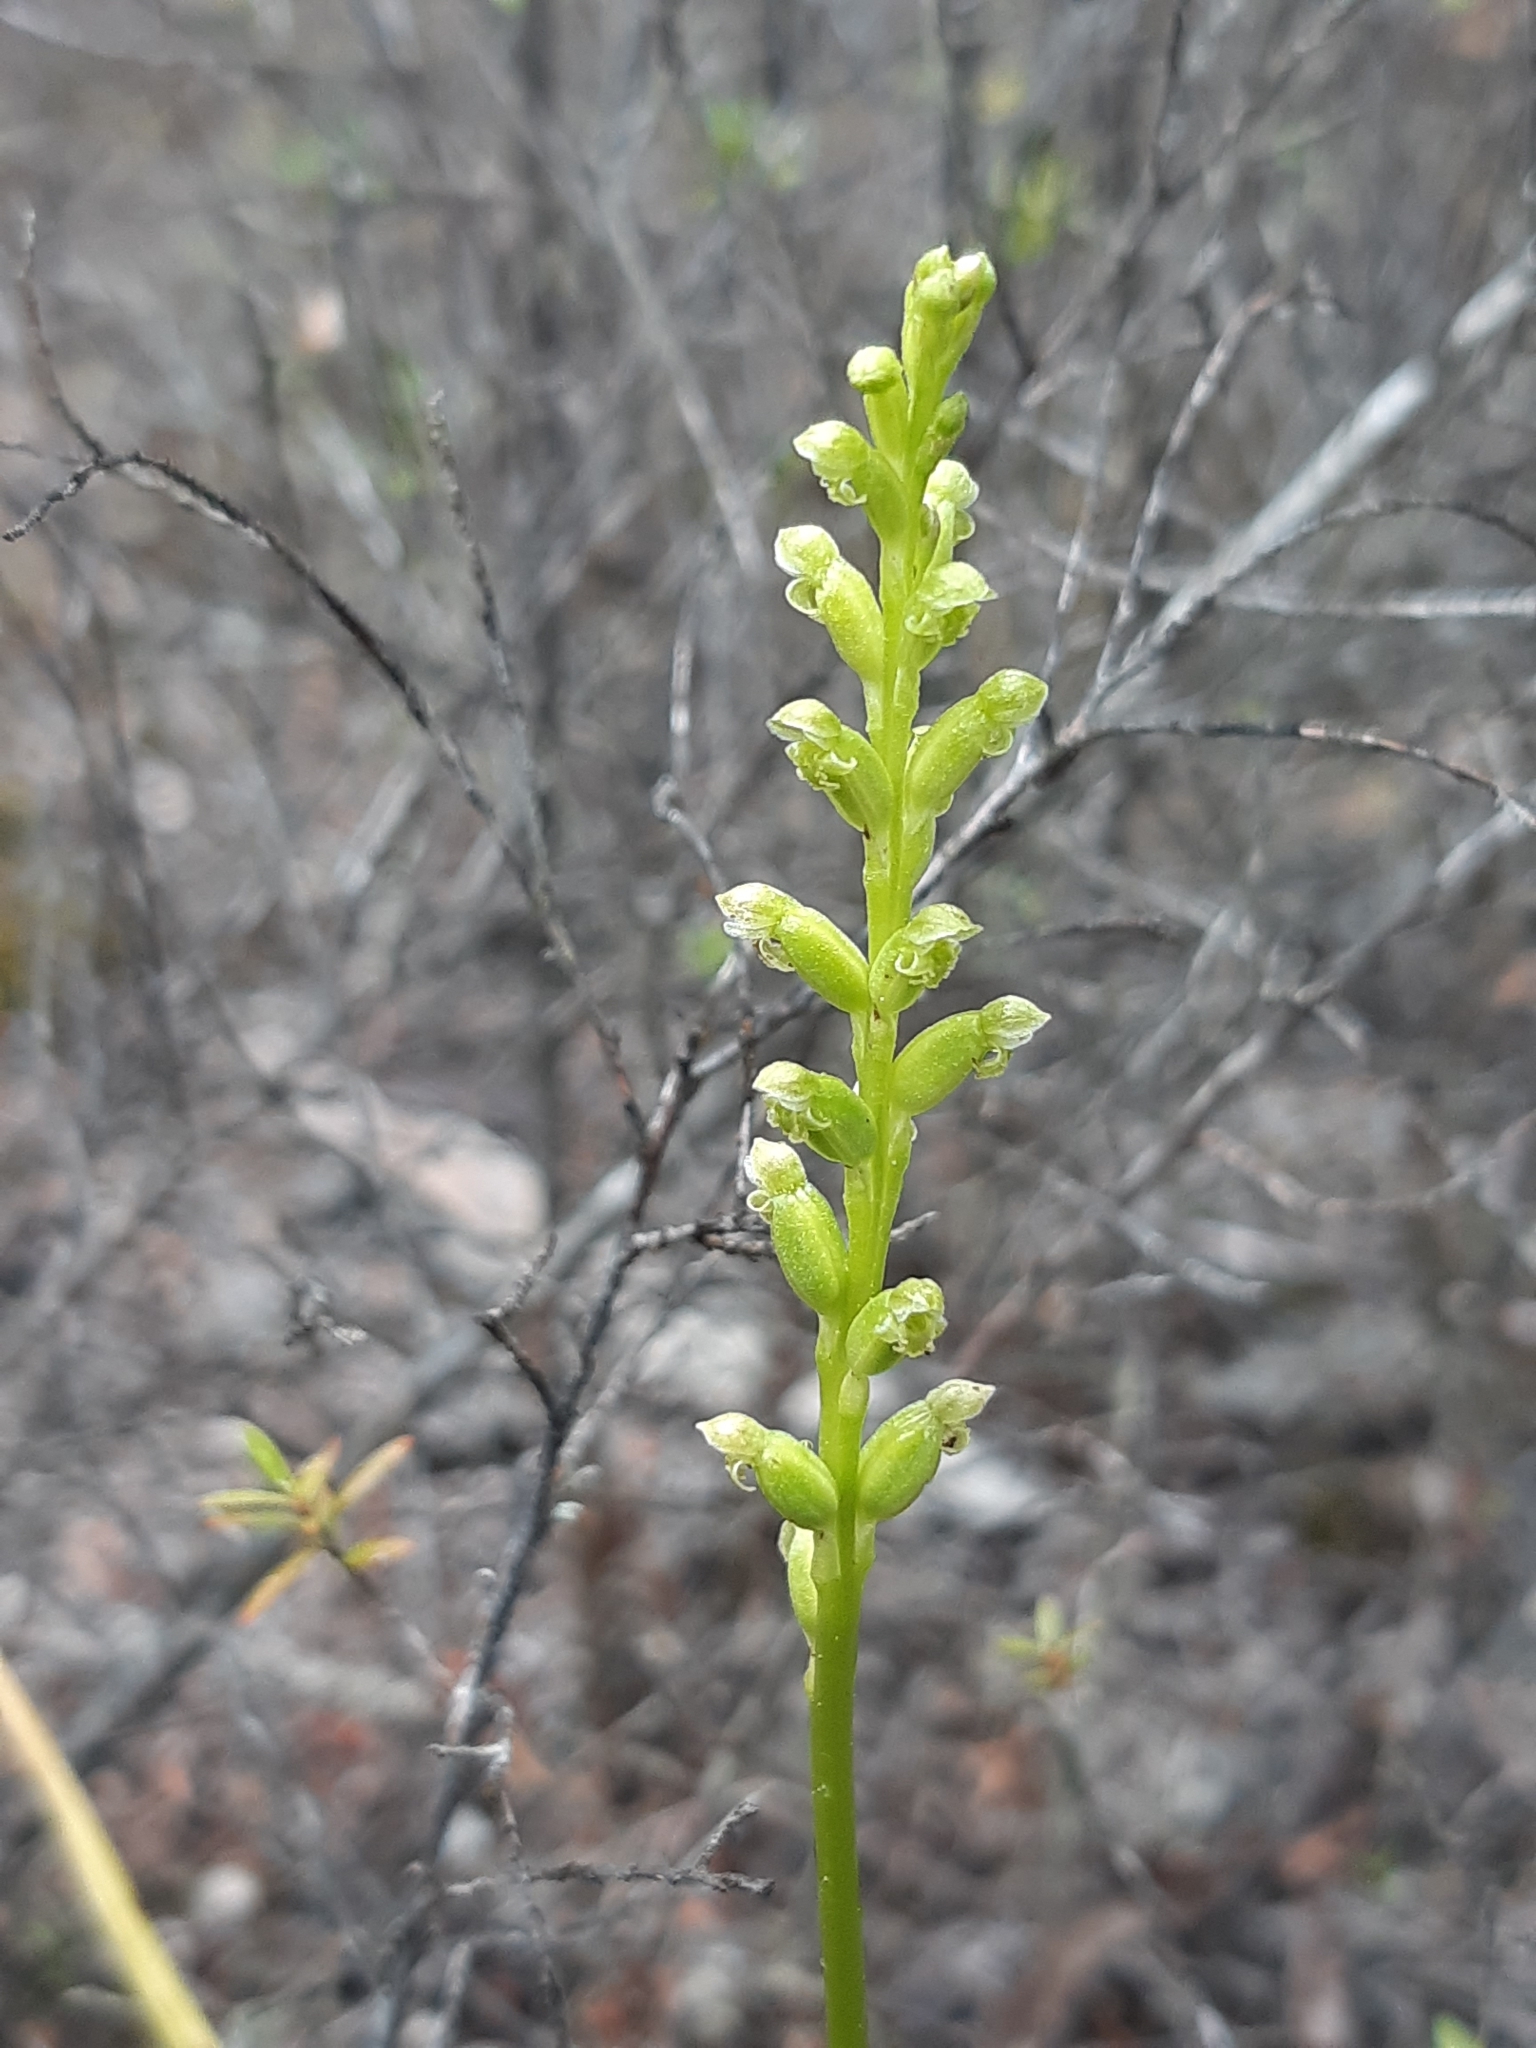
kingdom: Plantae
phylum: Tracheophyta
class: Liliopsida
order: Asparagales
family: Orchidaceae
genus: Microtis
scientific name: Microtis unifolia
